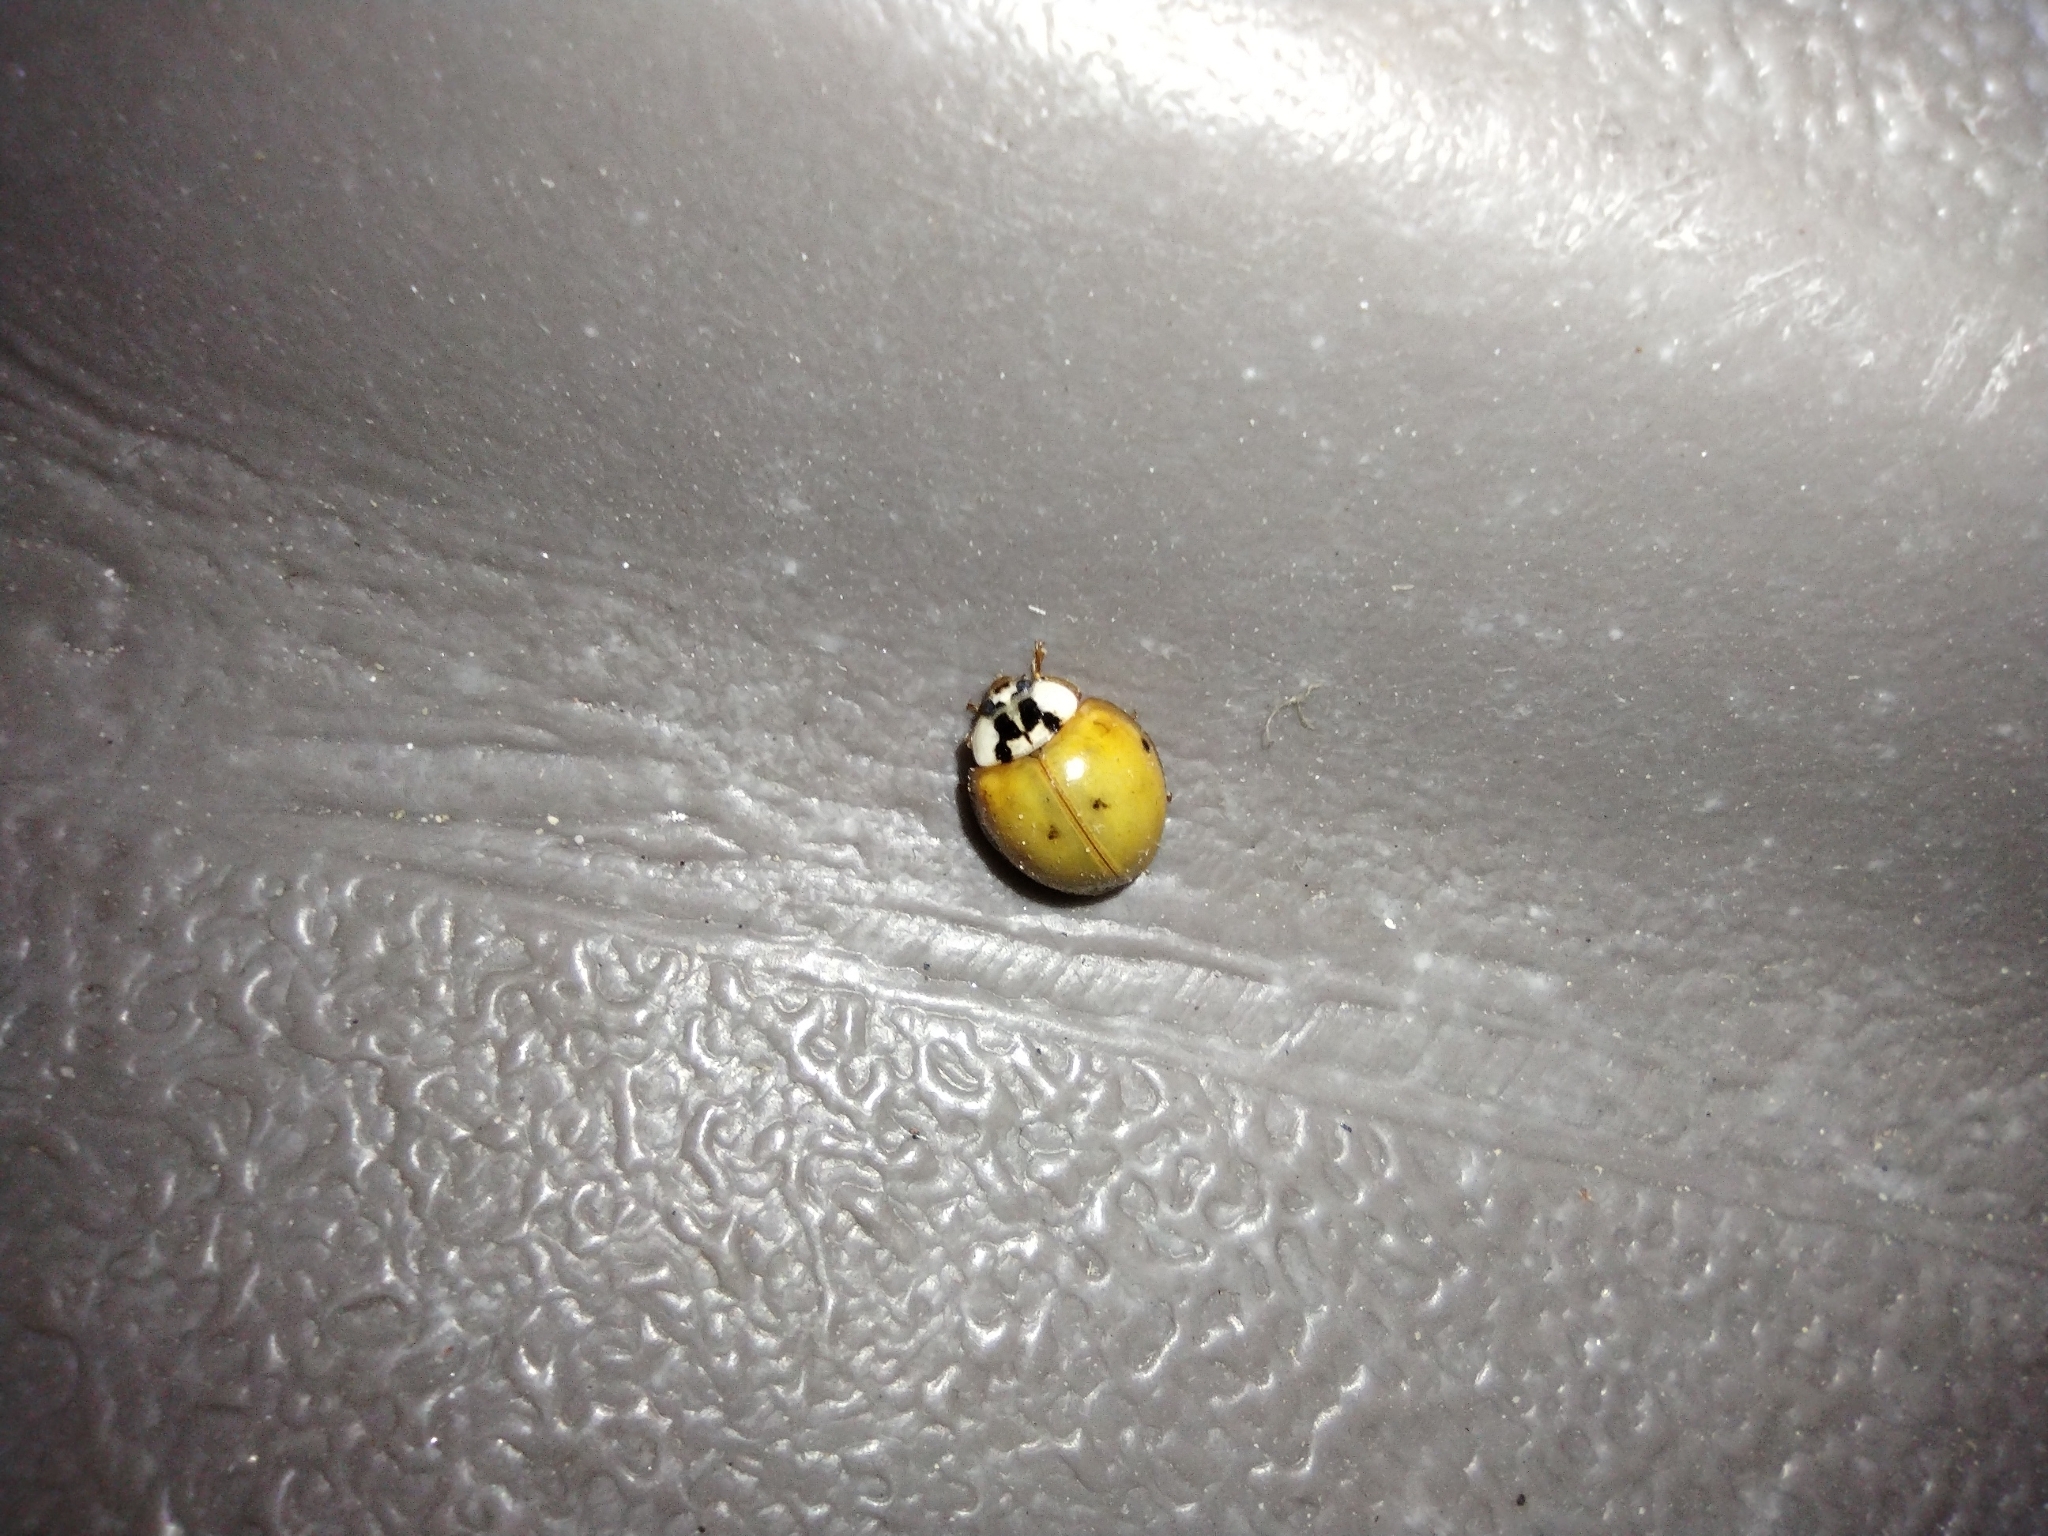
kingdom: Animalia
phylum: Arthropoda
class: Insecta
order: Coleoptera
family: Coccinellidae
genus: Harmonia
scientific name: Harmonia axyridis
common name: Harlequin ladybird
